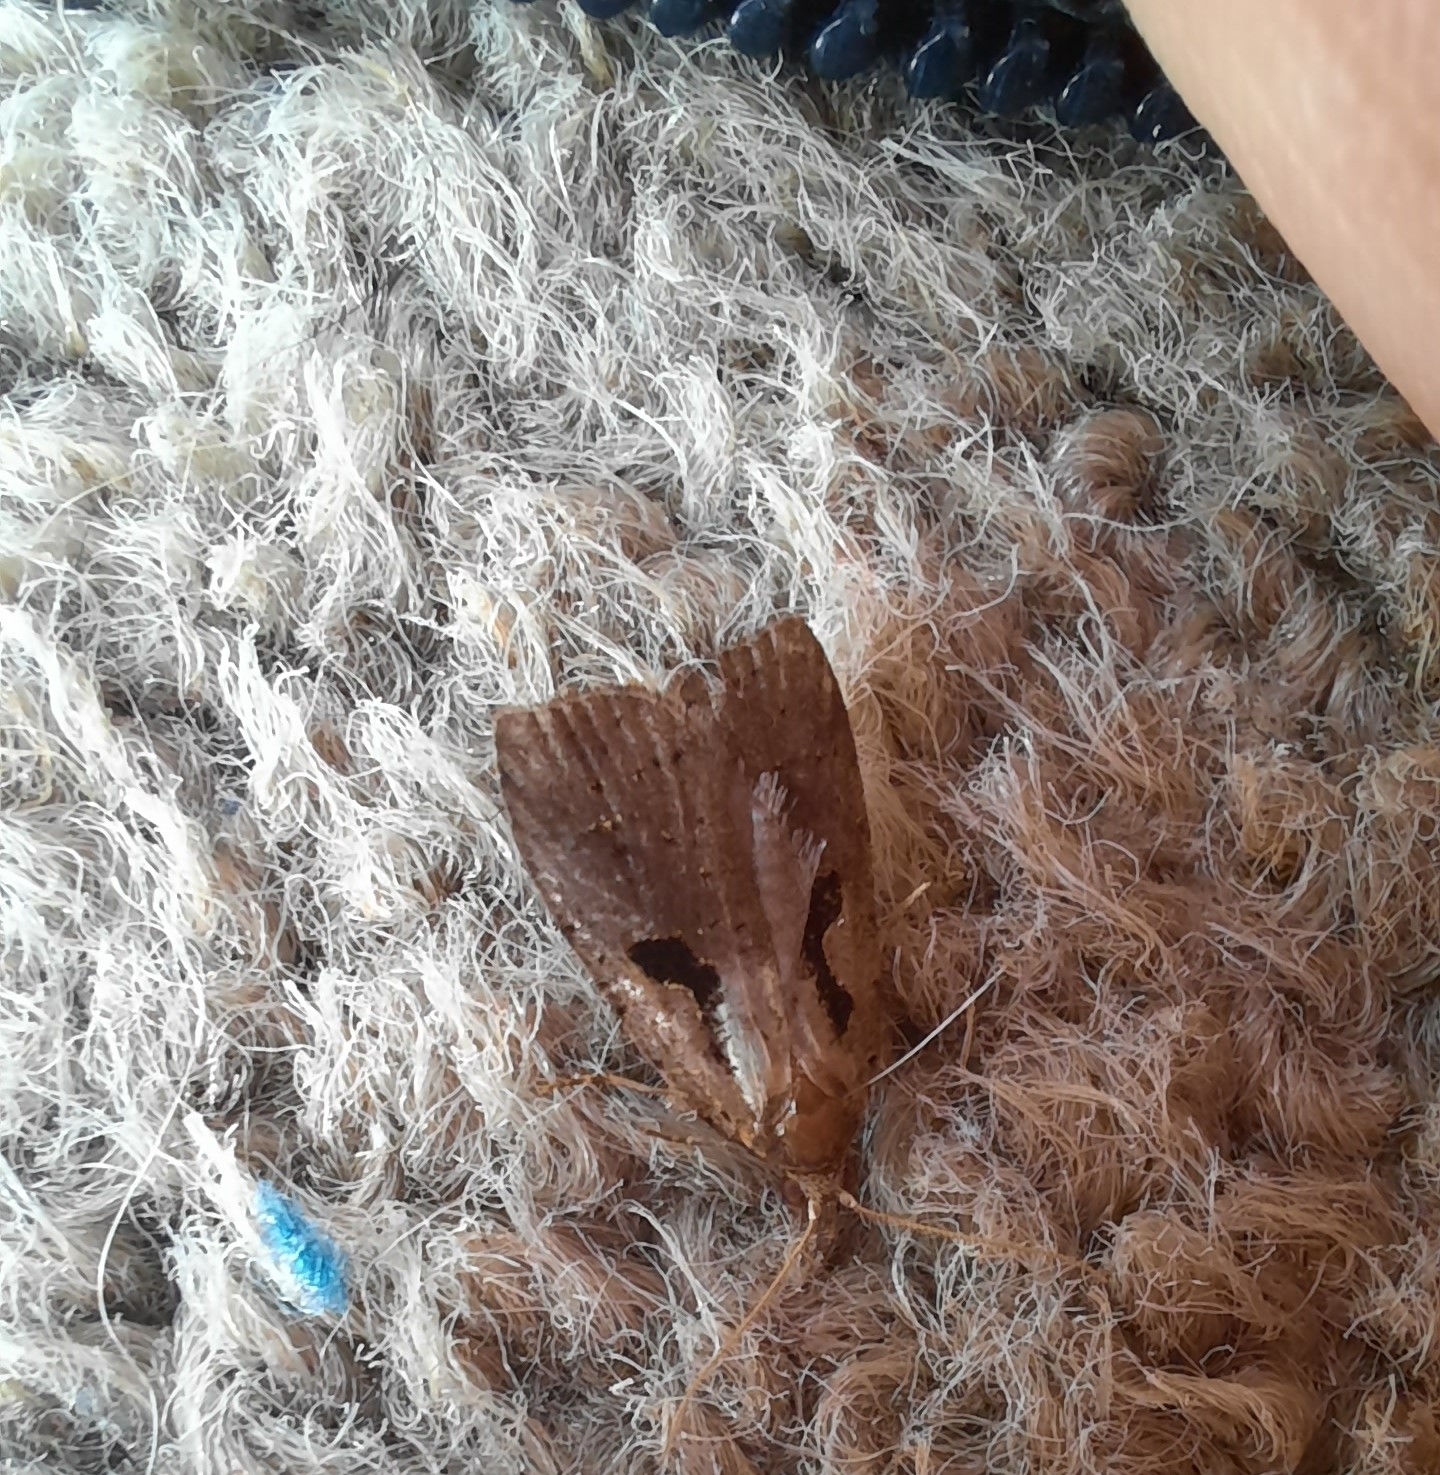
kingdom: Animalia
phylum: Arthropoda
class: Insecta
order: Lepidoptera
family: Tortricidae
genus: Cnephasia
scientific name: Cnephasia jactatana
